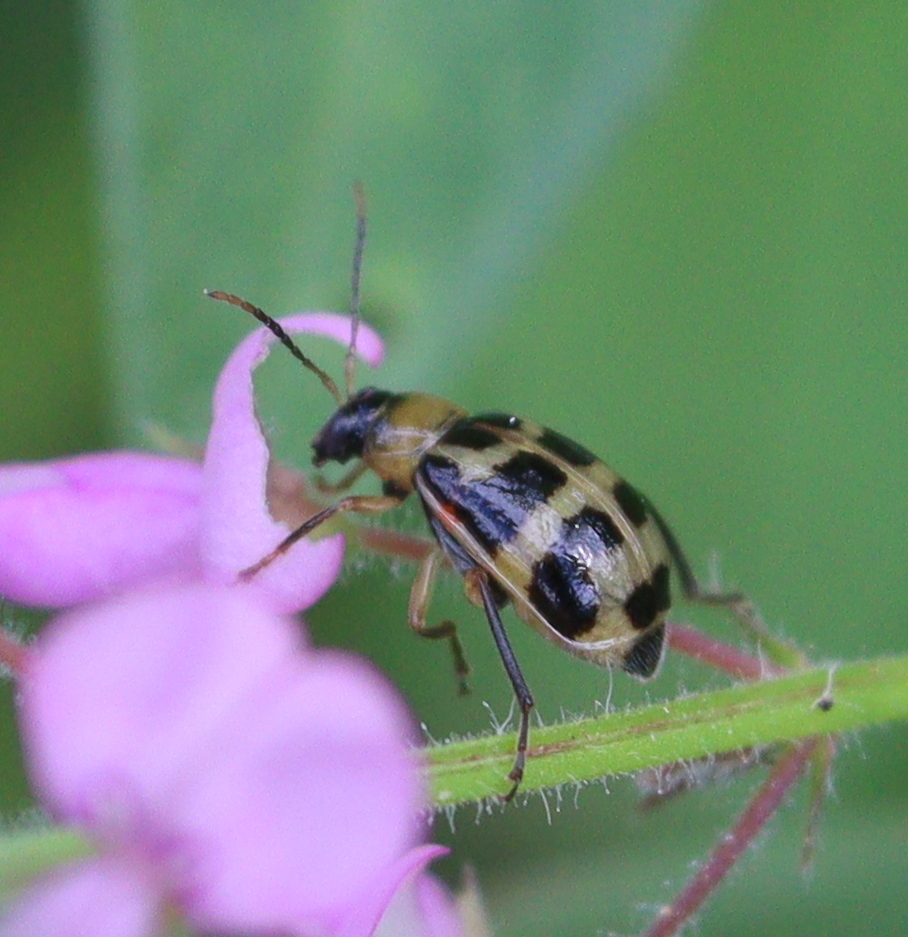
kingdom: Animalia
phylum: Arthropoda
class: Insecta
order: Coleoptera
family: Chrysomelidae
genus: Cerotoma
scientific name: Cerotoma arcuata
